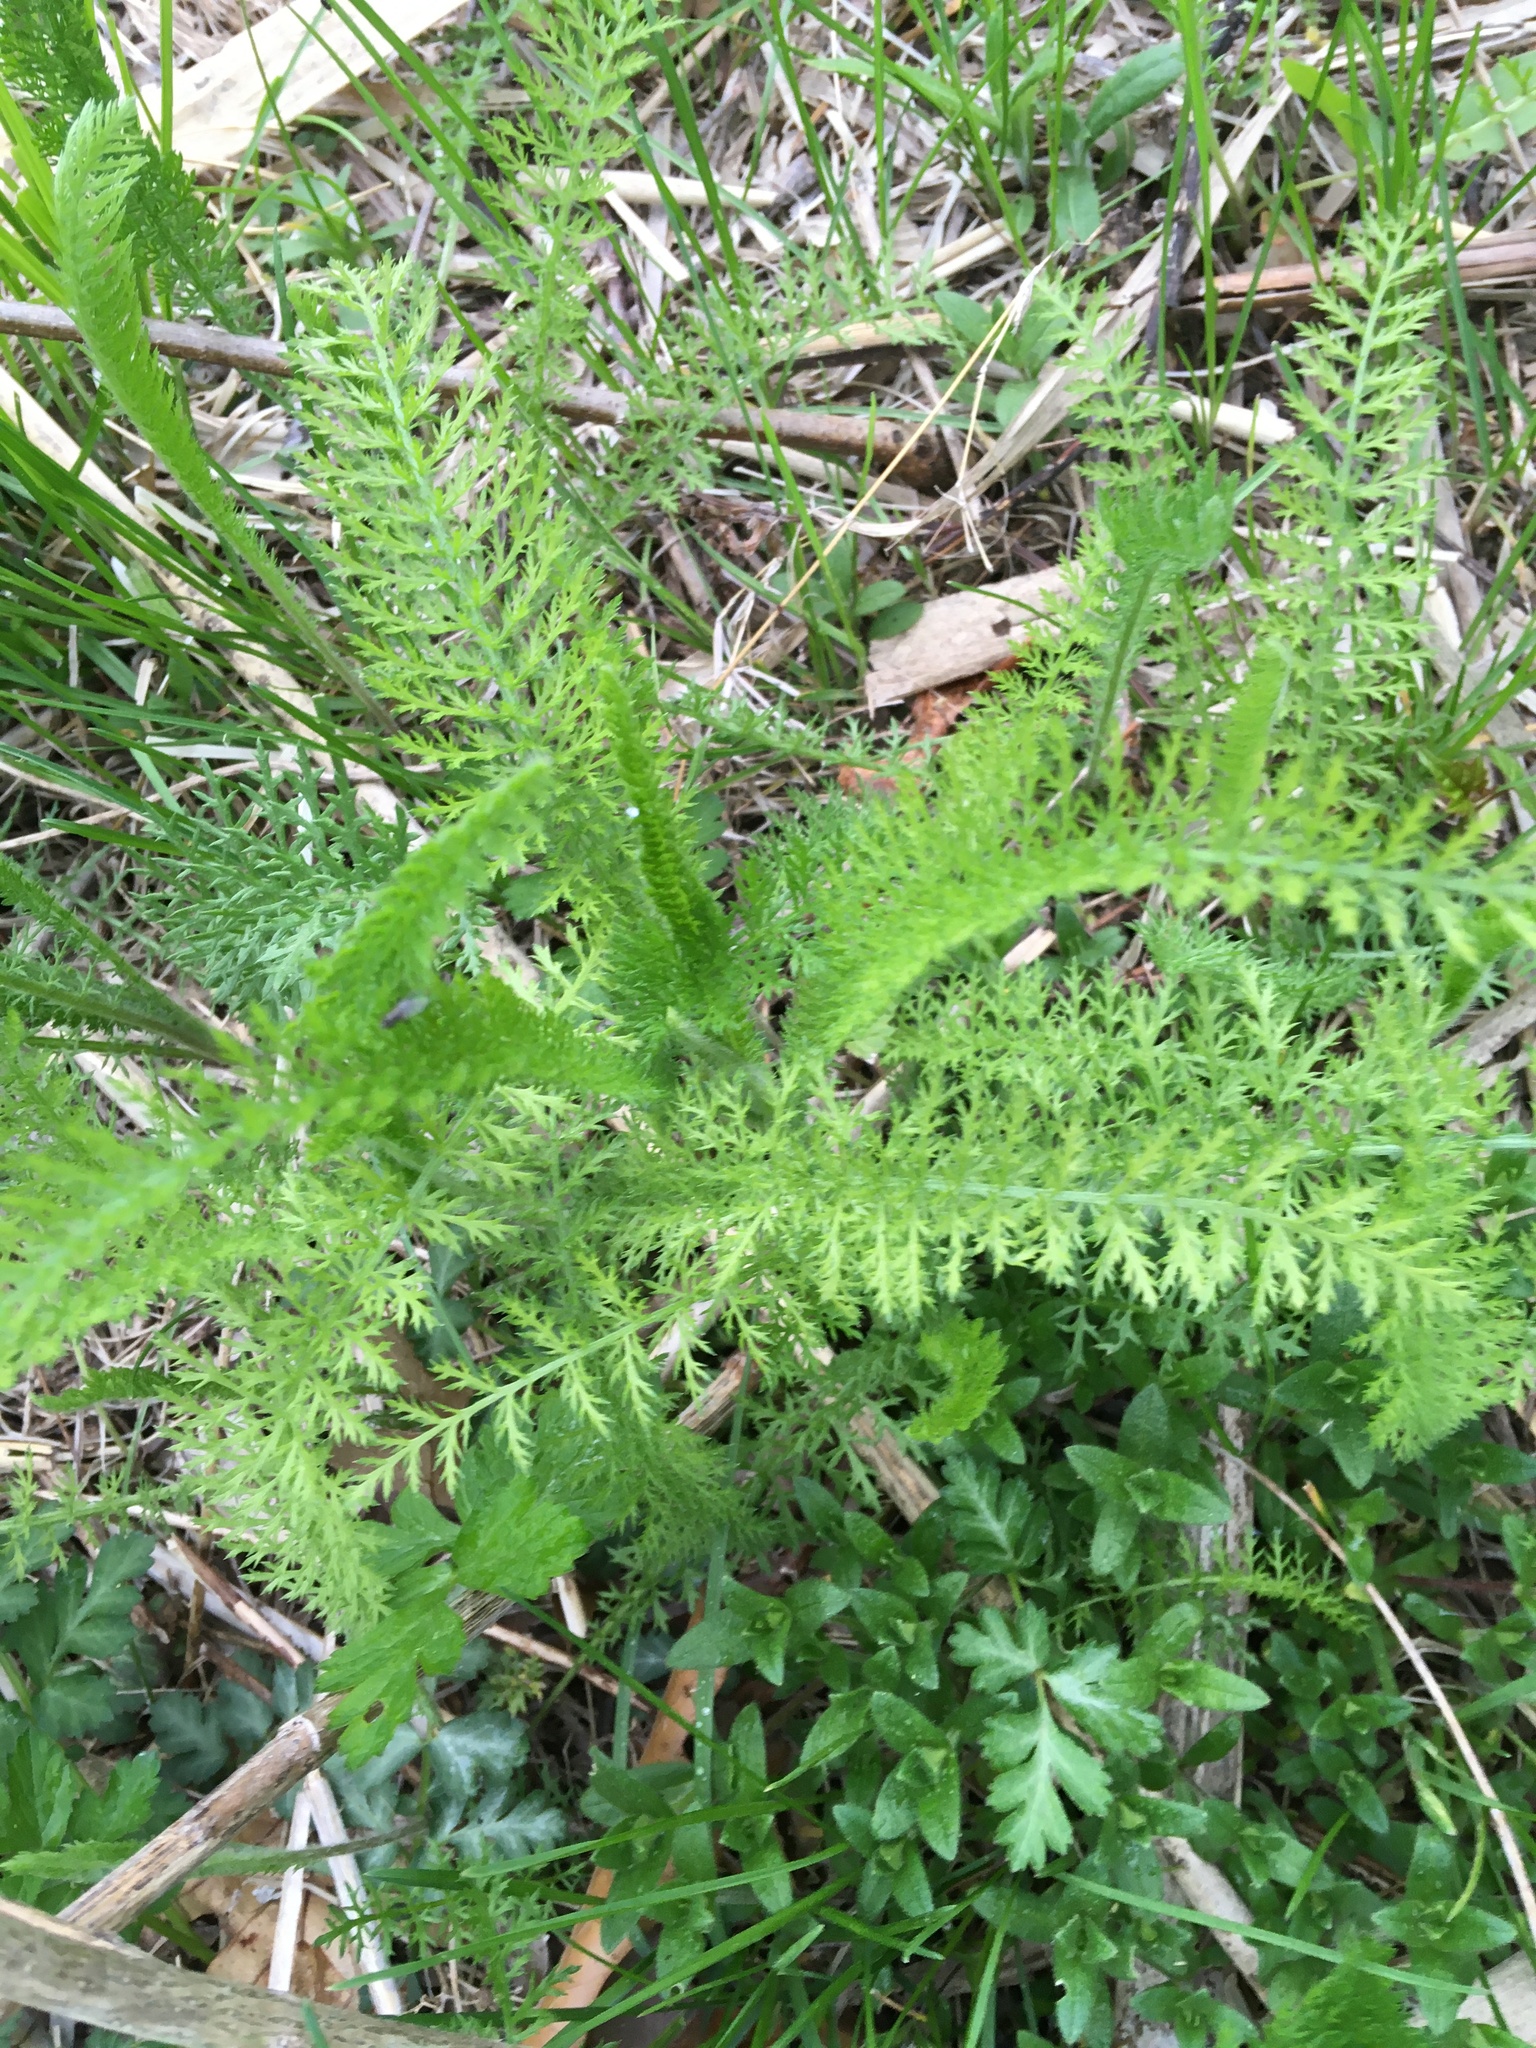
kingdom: Plantae
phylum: Tracheophyta
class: Magnoliopsida
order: Asterales
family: Asteraceae
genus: Achillea
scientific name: Achillea millefolium
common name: Yarrow
